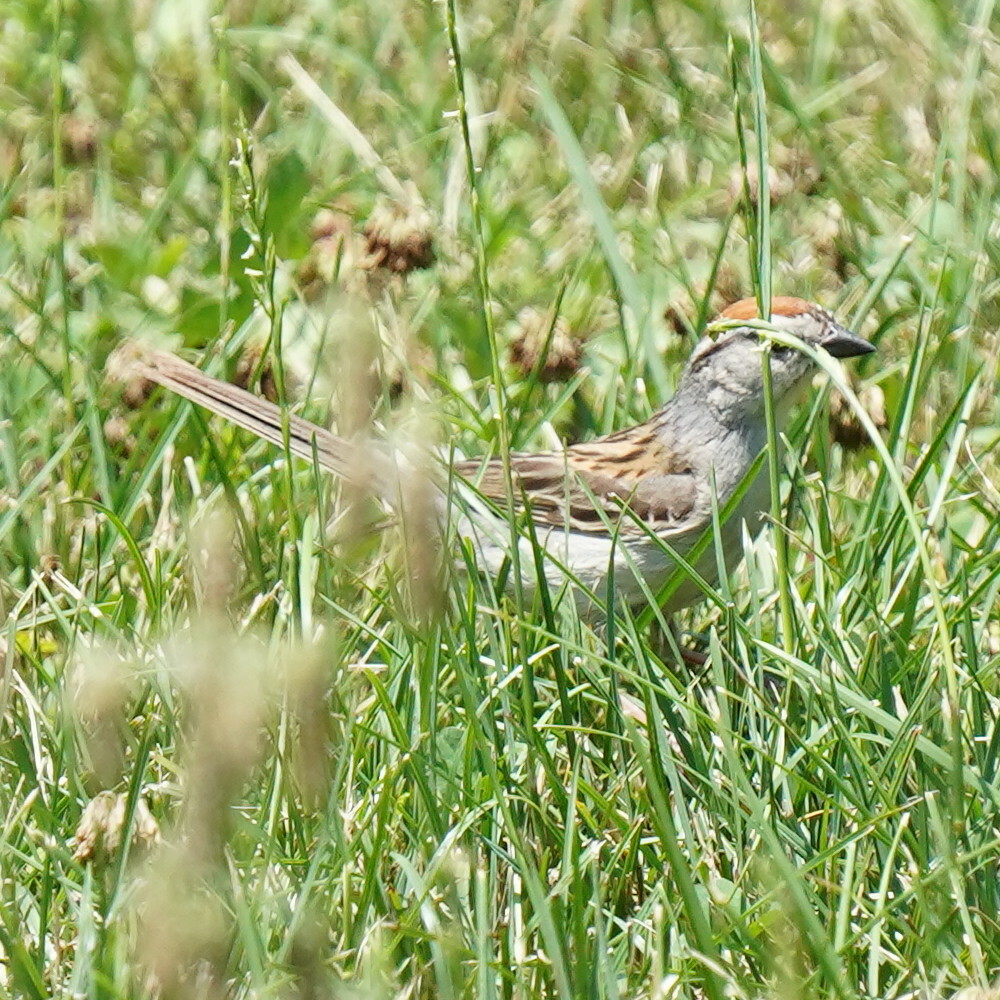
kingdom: Animalia
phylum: Chordata
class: Aves
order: Passeriformes
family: Passerellidae
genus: Spizella
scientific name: Spizella passerina
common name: Chipping sparrow
